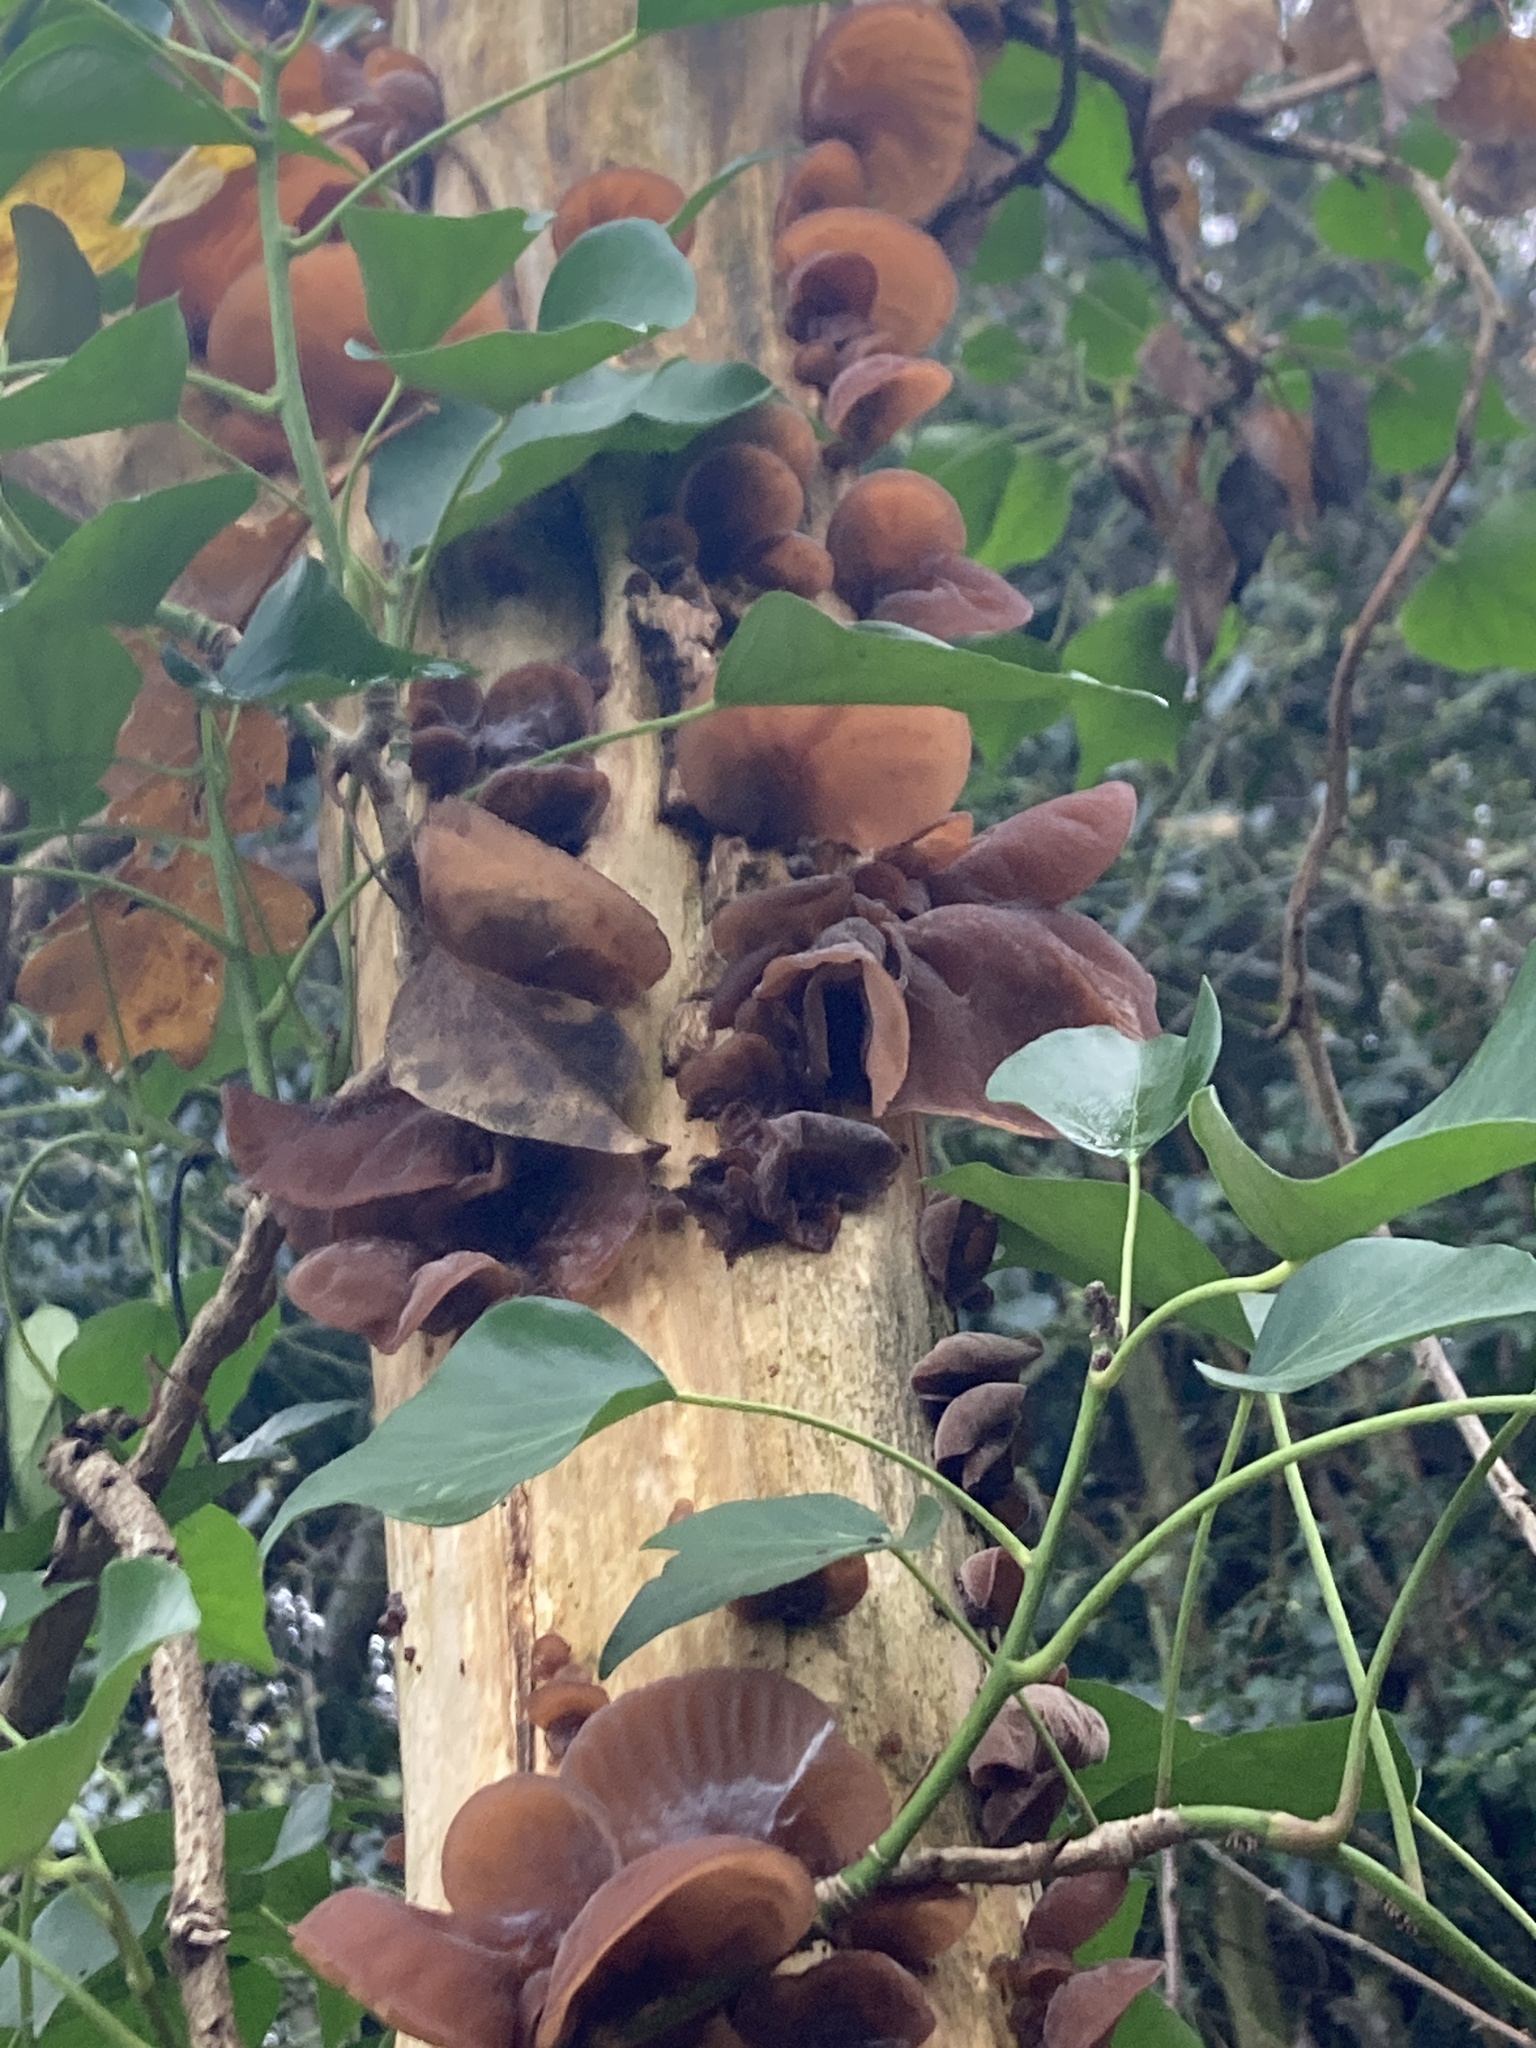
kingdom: Fungi
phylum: Basidiomycota
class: Agaricomycetes
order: Auriculariales
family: Auriculariaceae
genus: Auricularia
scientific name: Auricularia auricula-judae
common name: Jelly ear
